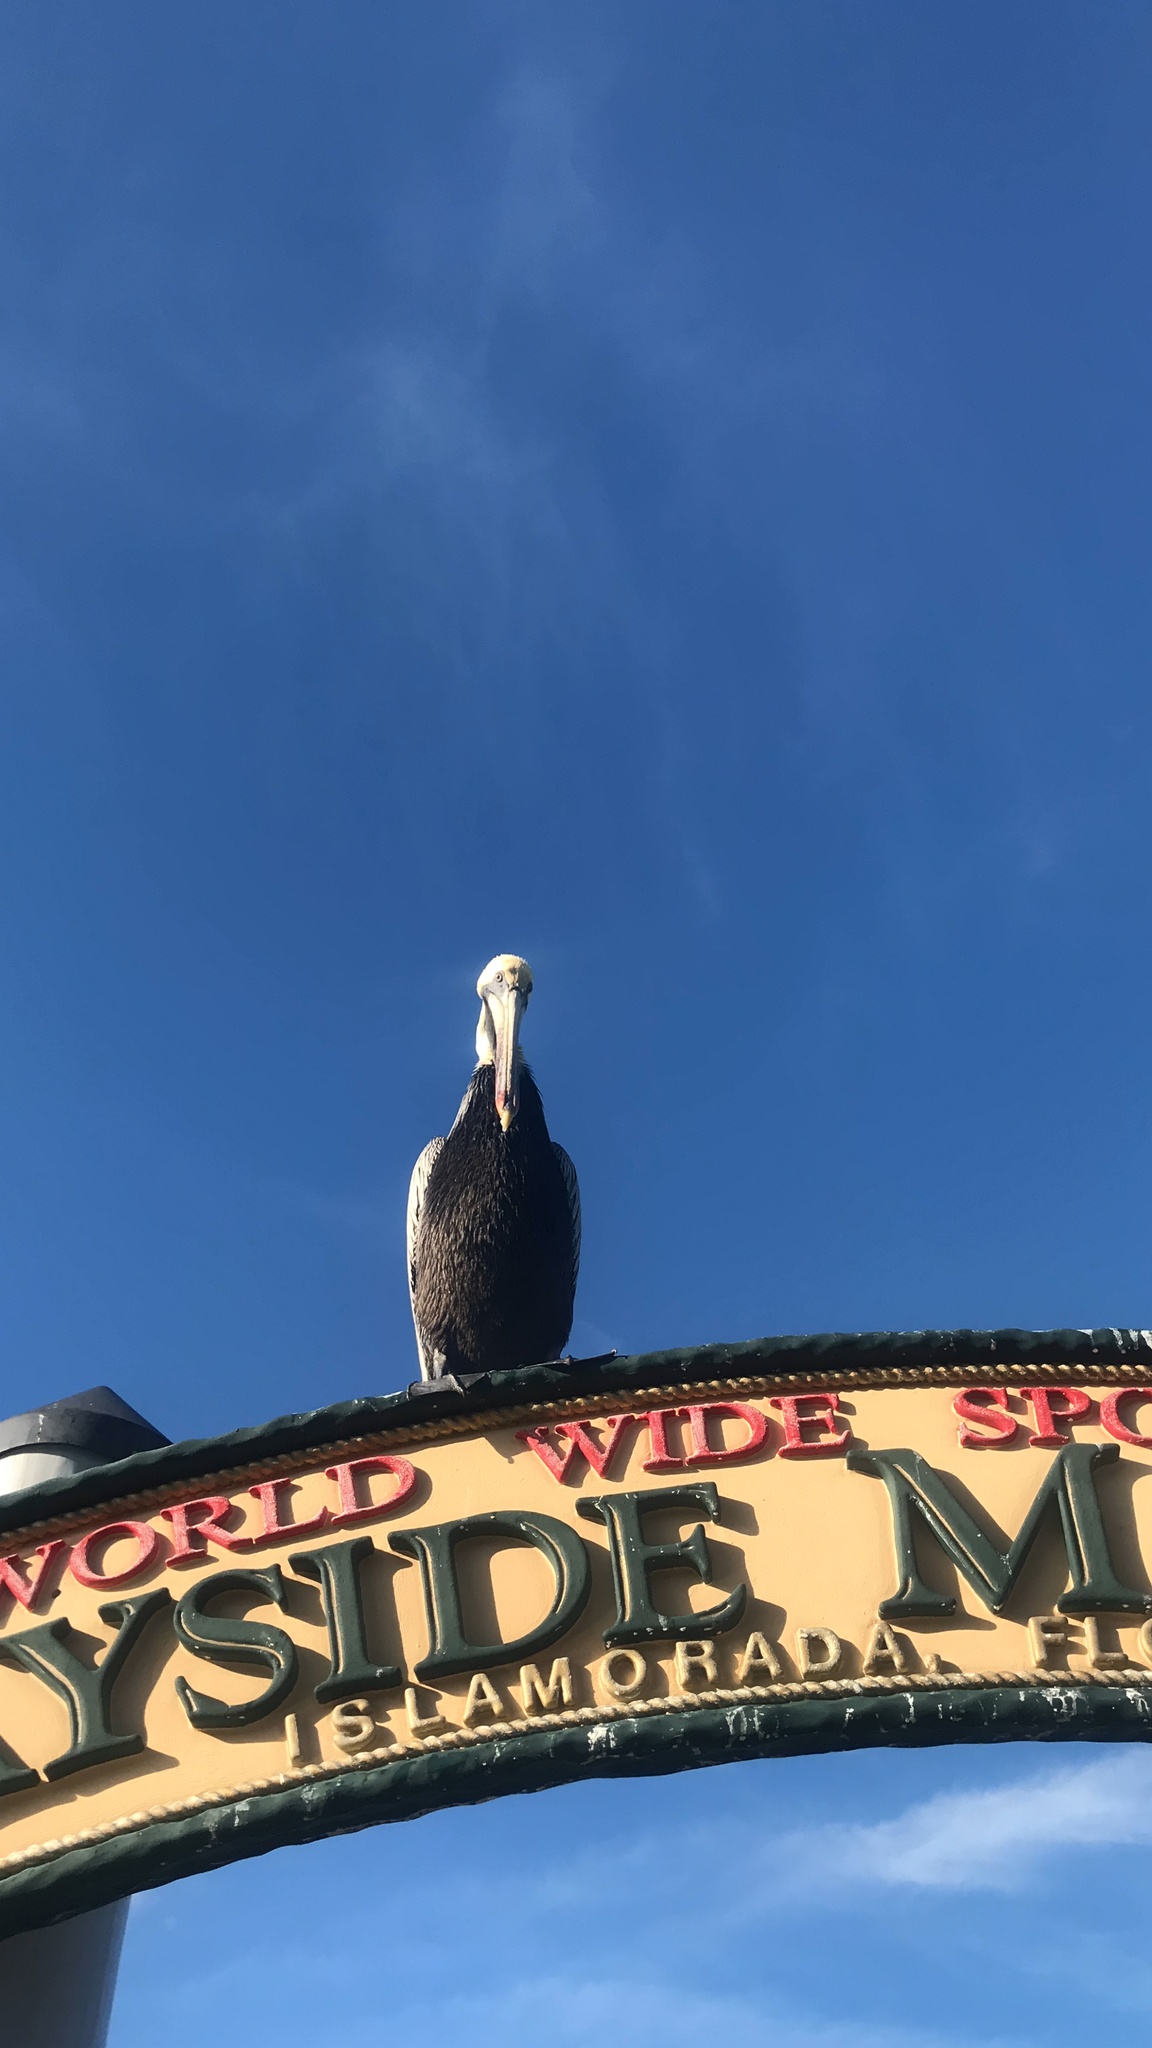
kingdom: Animalia
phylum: Chordata
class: Aves
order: Pelecaniformes
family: Pelecanidae
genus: Pelecanus
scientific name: Pelecanus occidentalis
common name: Brown pelican
